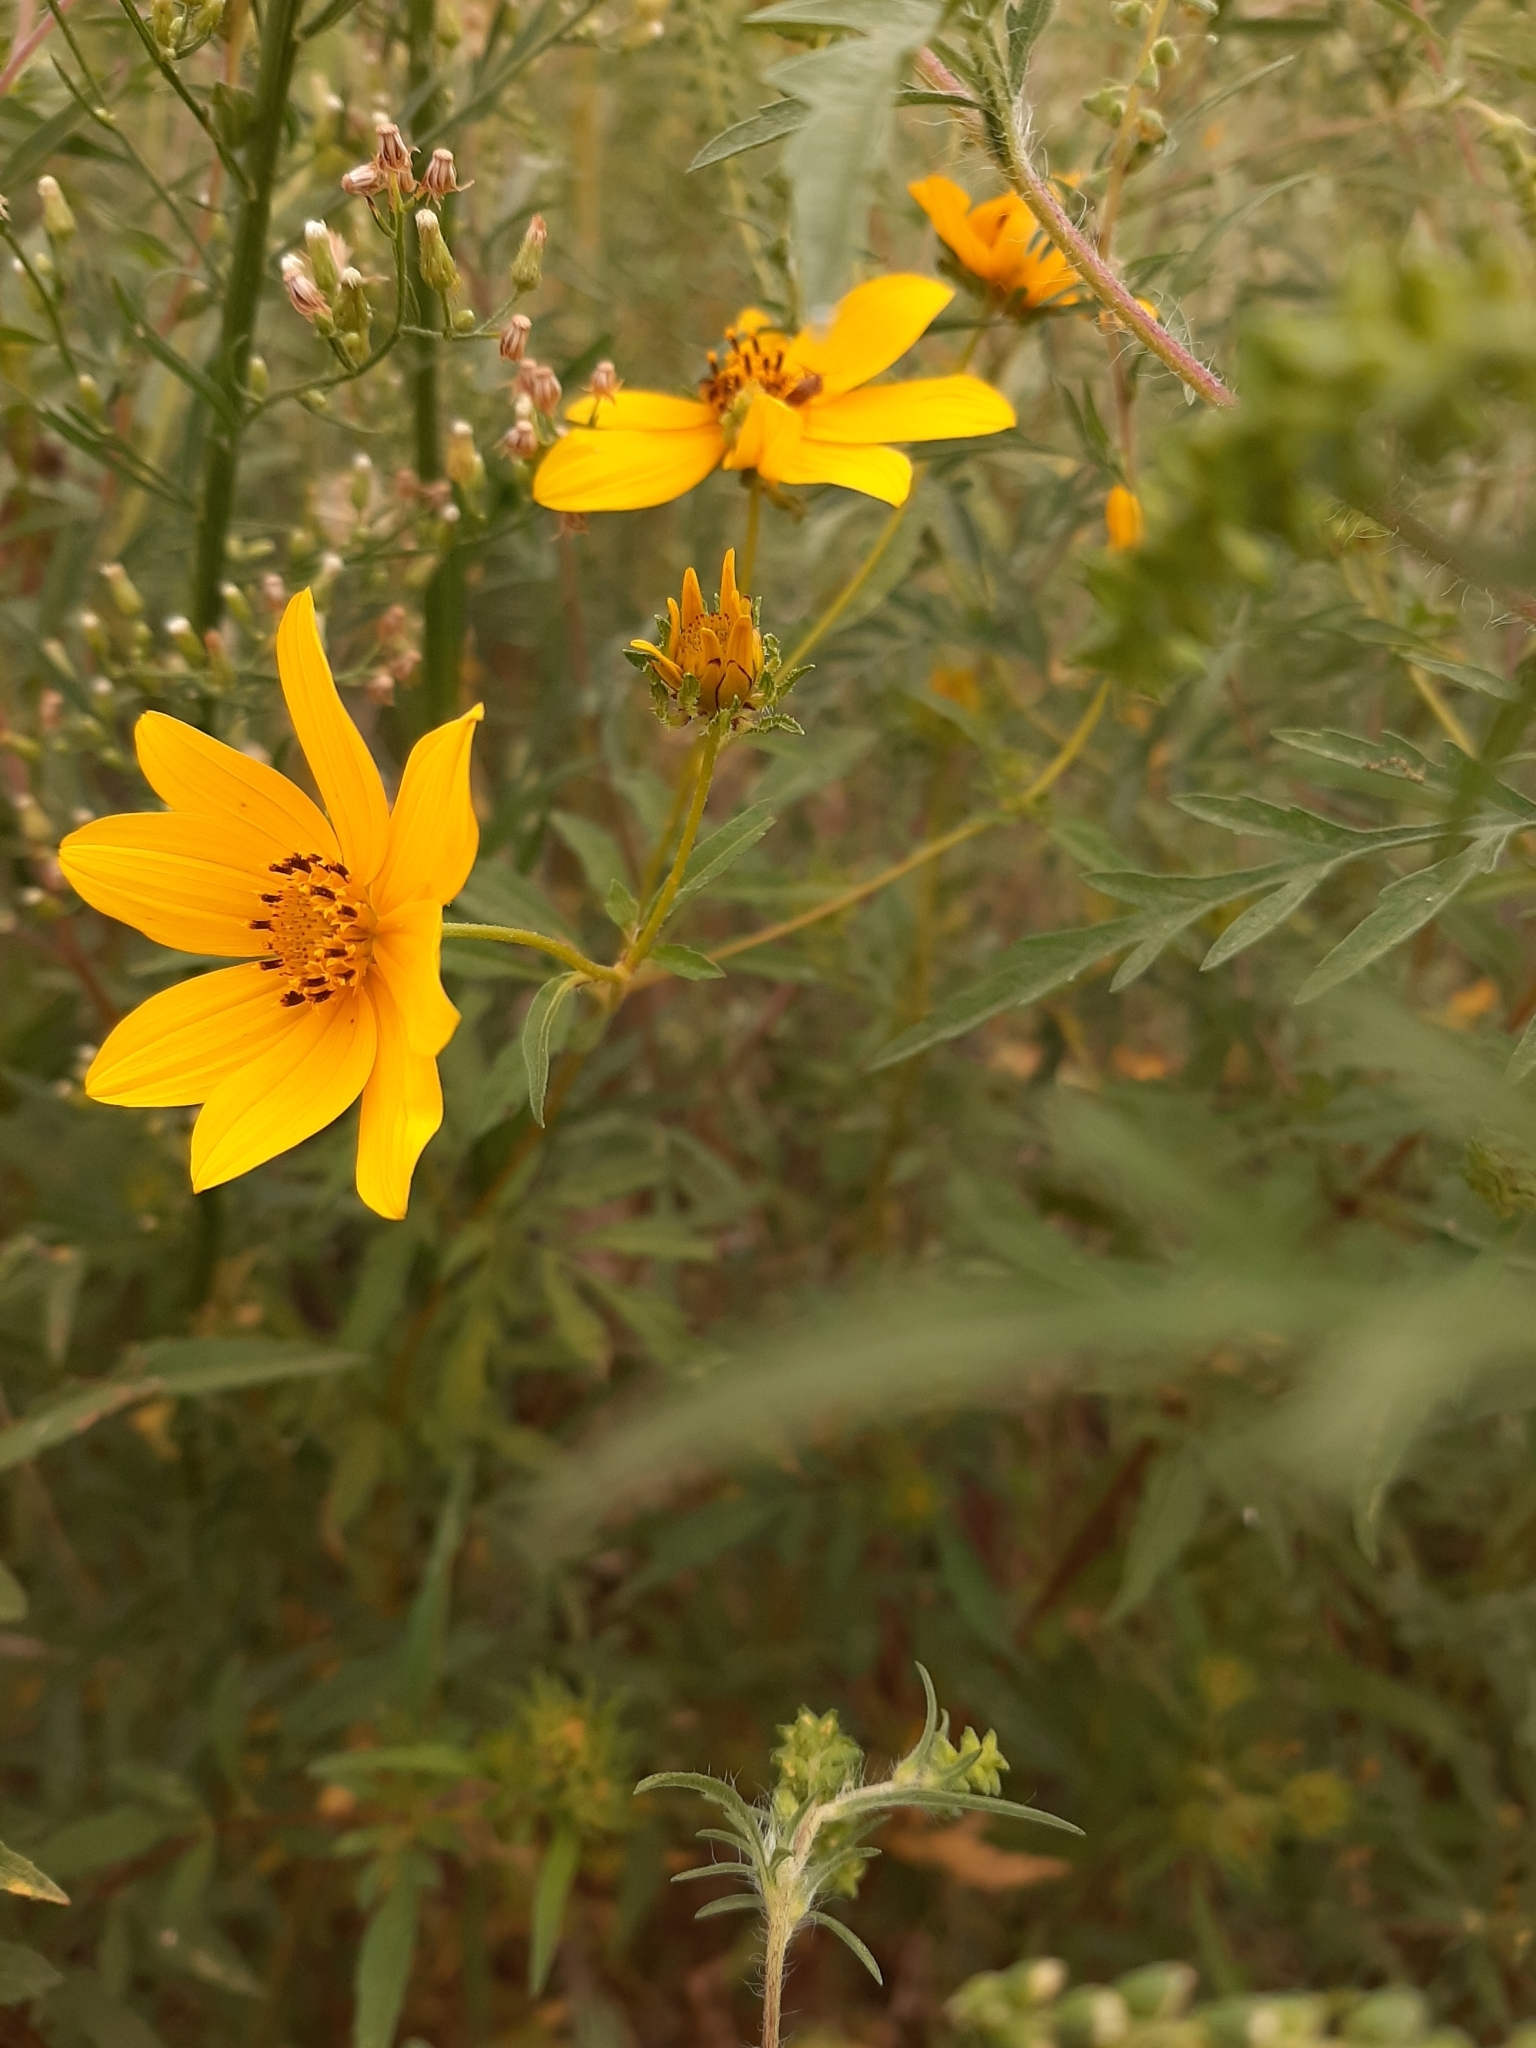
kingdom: Plantae
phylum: Tracheophyta
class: Magnoliopsida
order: Asterales
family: Asteraceae
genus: Bidens
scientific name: Bidens polylepis
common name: Awnless beggarticks
